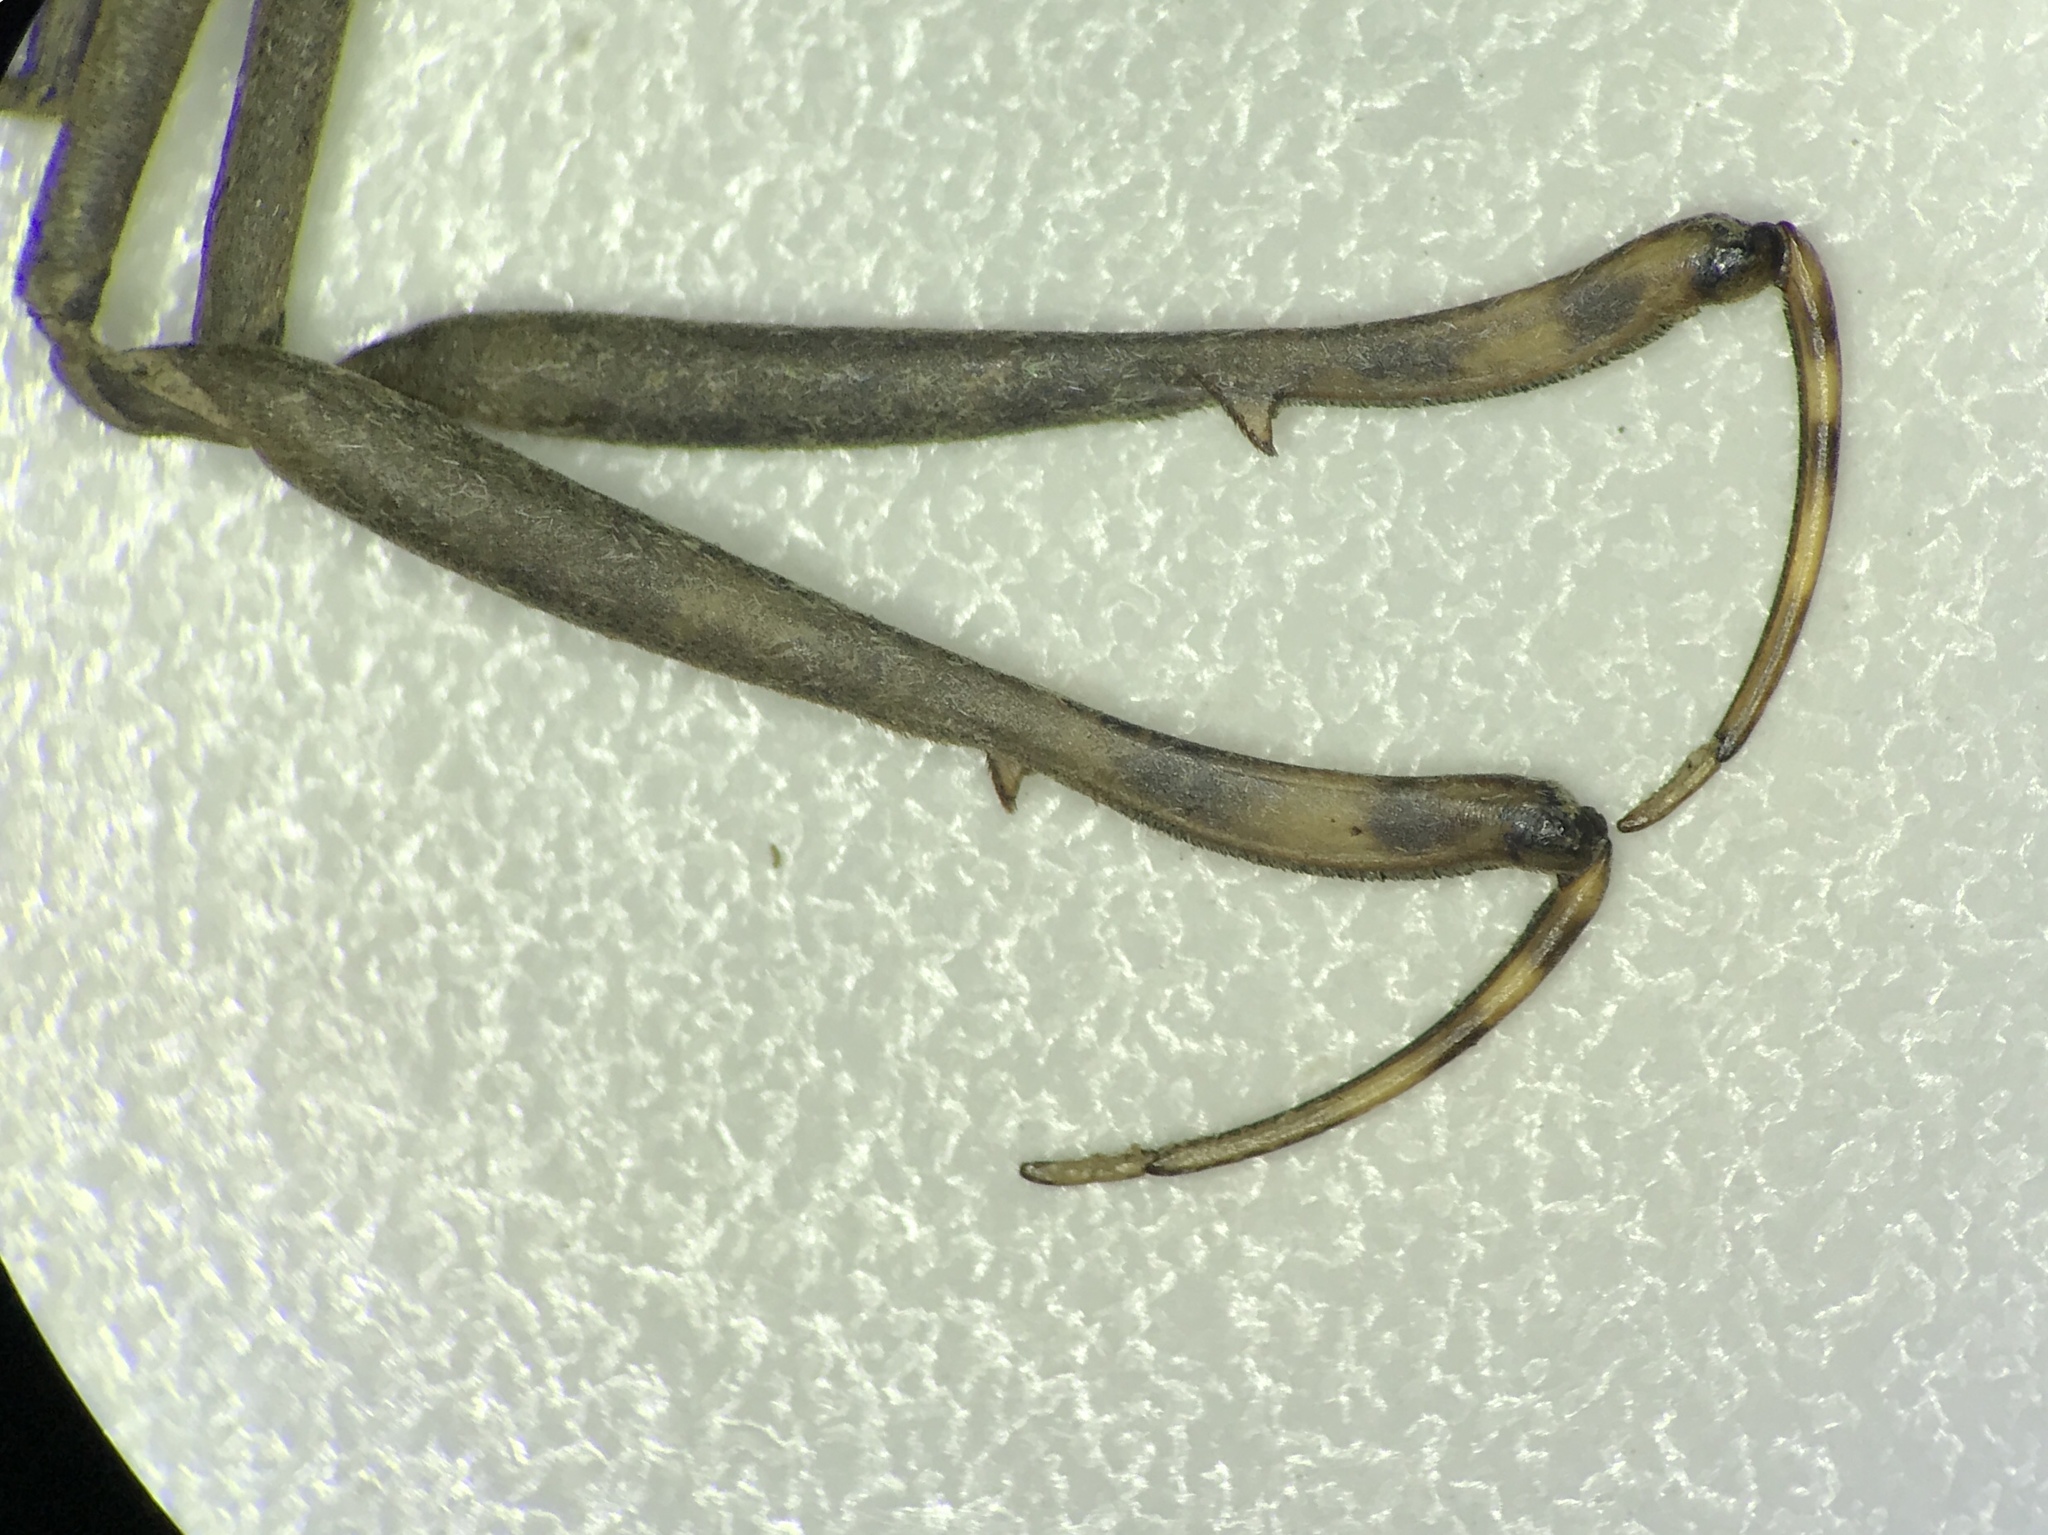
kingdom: Animalia
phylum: Arthropoda
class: Insecta
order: Hemiptera
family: Nepidae
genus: Ranatra
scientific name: Ranatra australis
